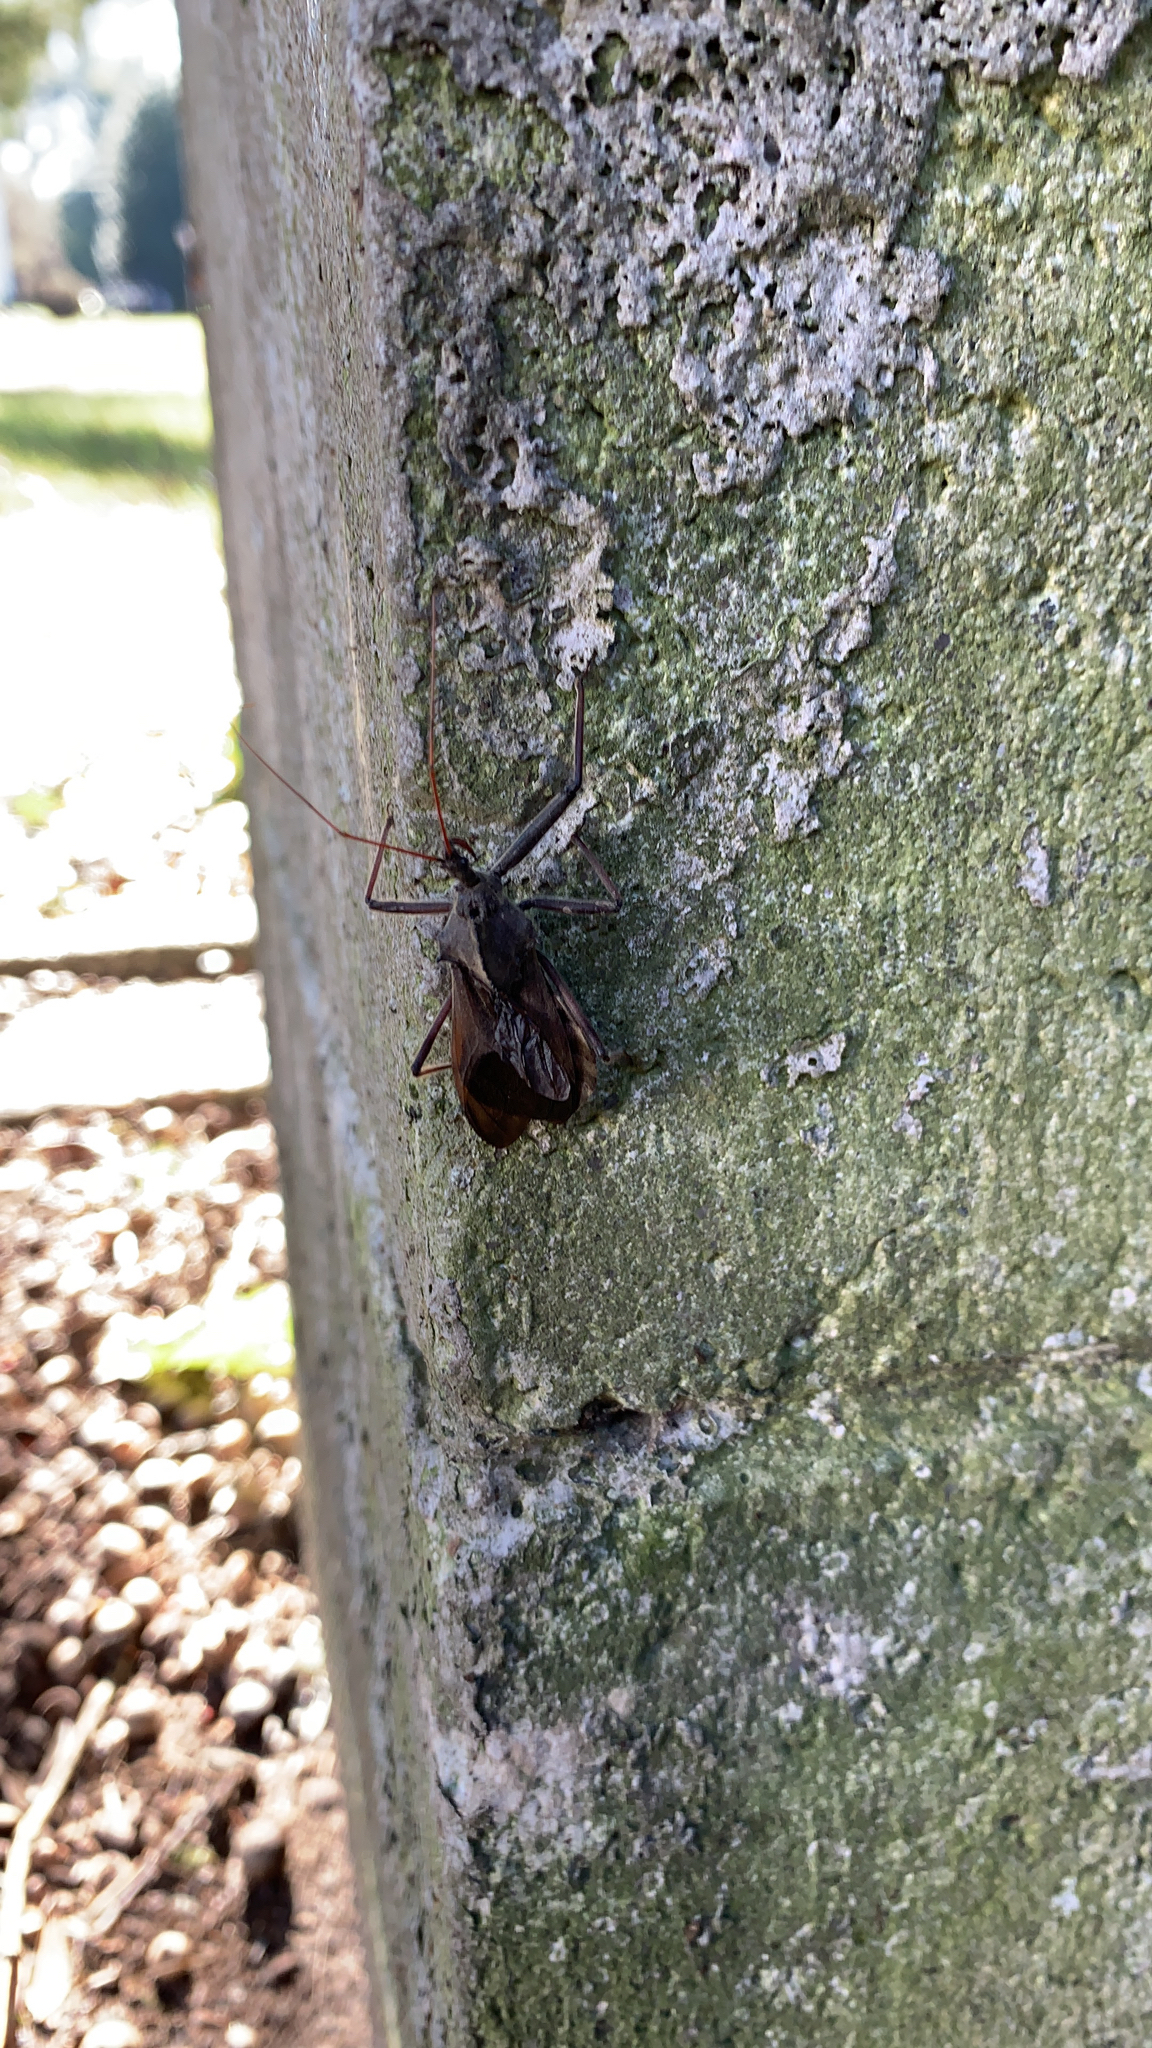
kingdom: Animalia
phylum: Arthropoda
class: Insecta
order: Hemiptera
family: Reduviidae
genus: Arilus
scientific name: Arilus cristatus
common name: North american wheel bug
